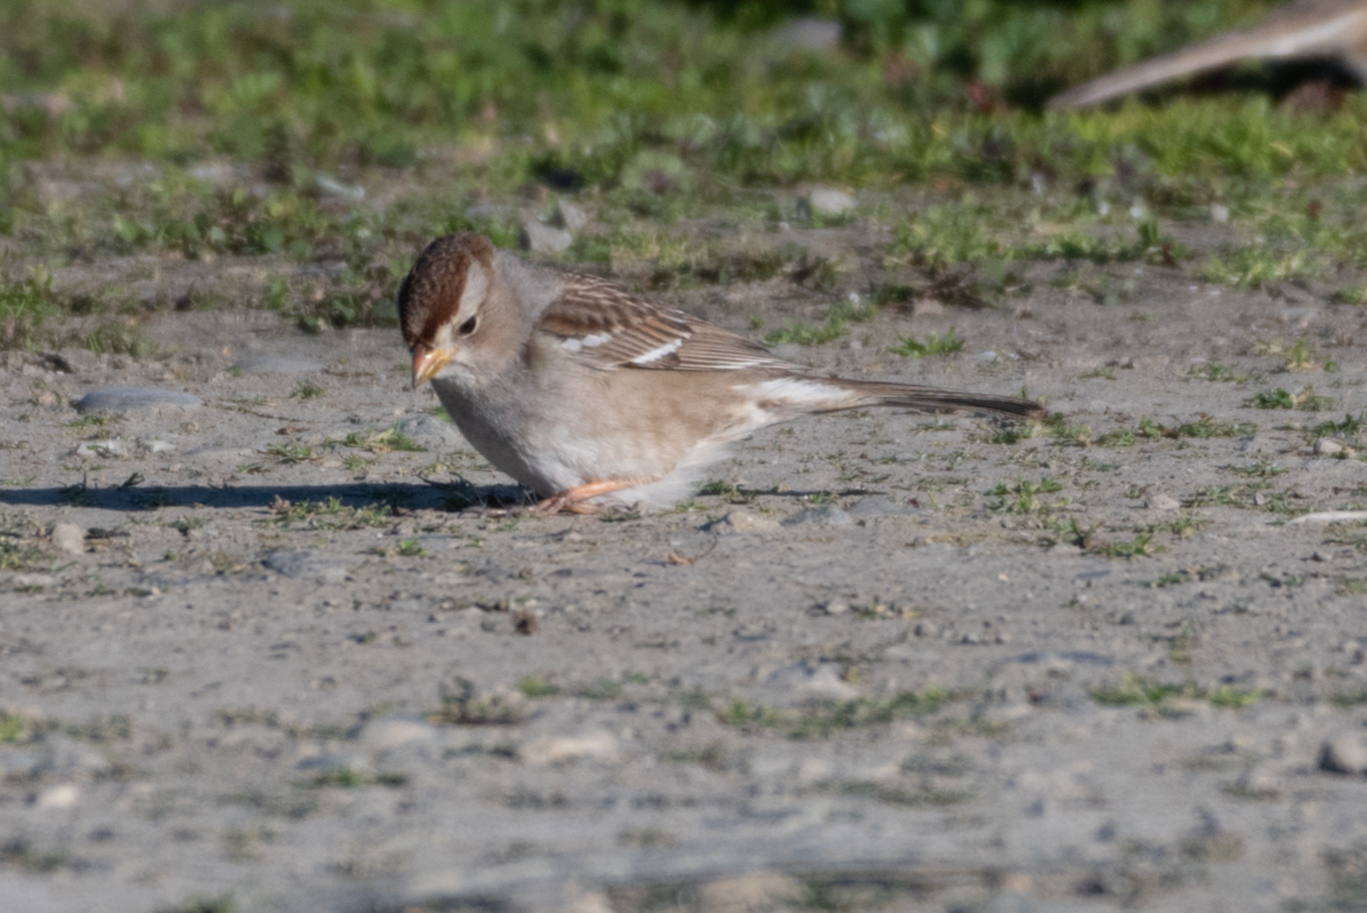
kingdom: Animalia
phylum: Chordata
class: Aves
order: Passeriformes
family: Passerellidae
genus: Zonotrichia
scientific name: Zonotrichia leucophrys
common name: White-crowned sparrow
